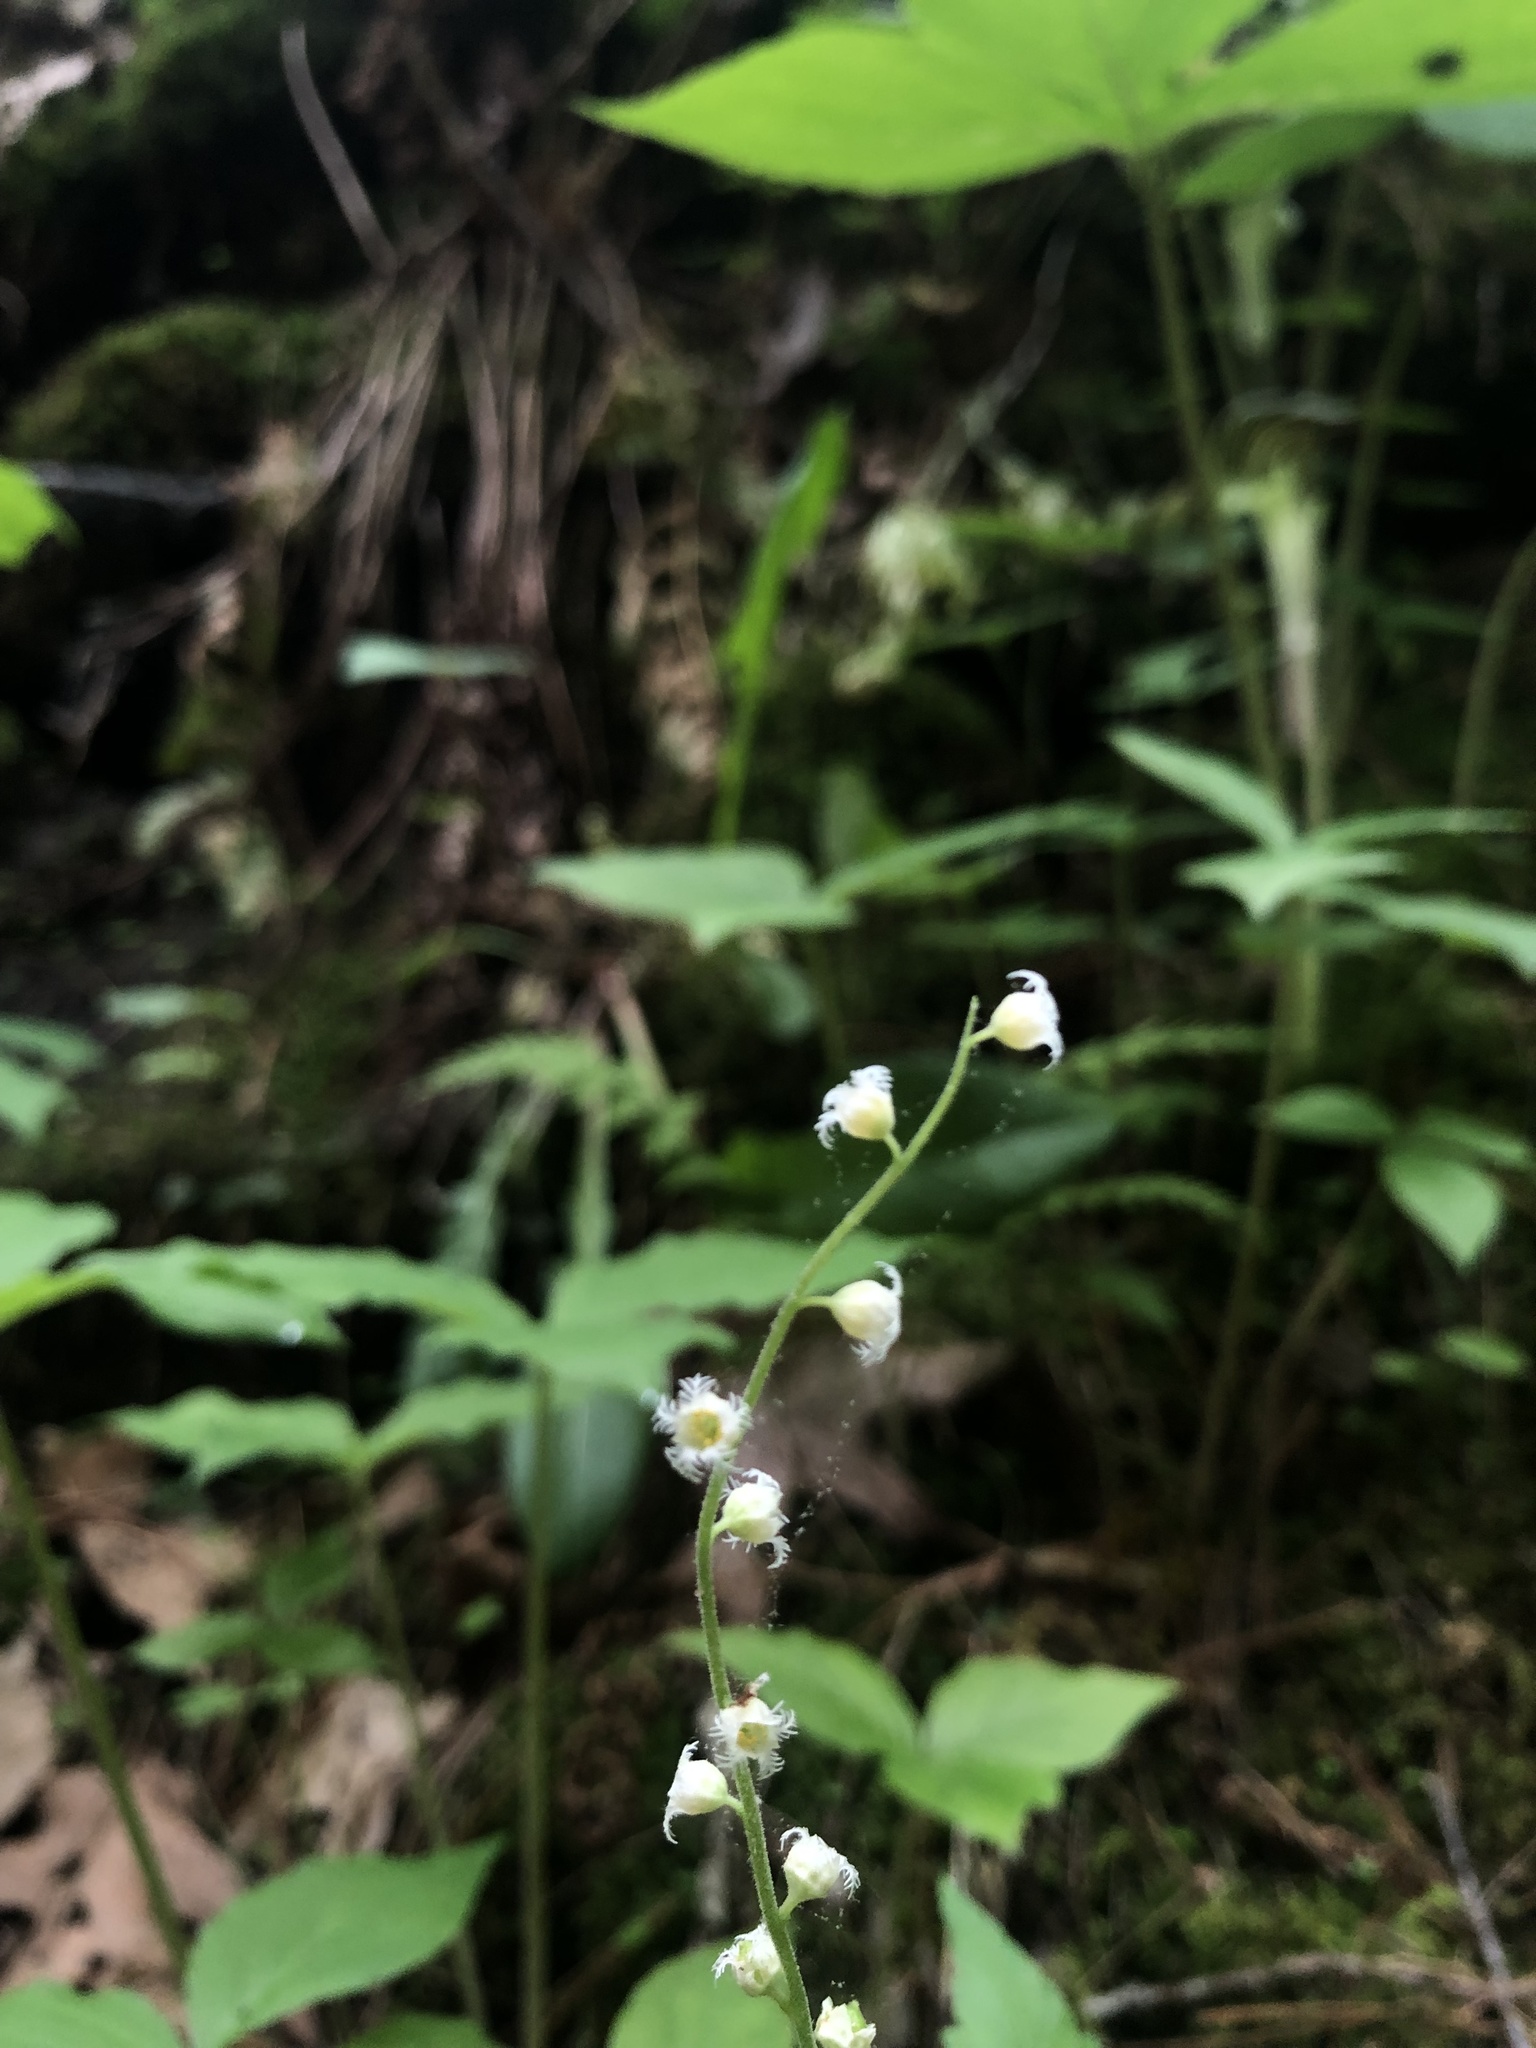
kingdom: Plantae
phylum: Tracheophyta
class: Magnoliopsida
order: Saxifragales
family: Saxifragaceae
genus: Mitella
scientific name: Mitella diphylla
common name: Coolwort
